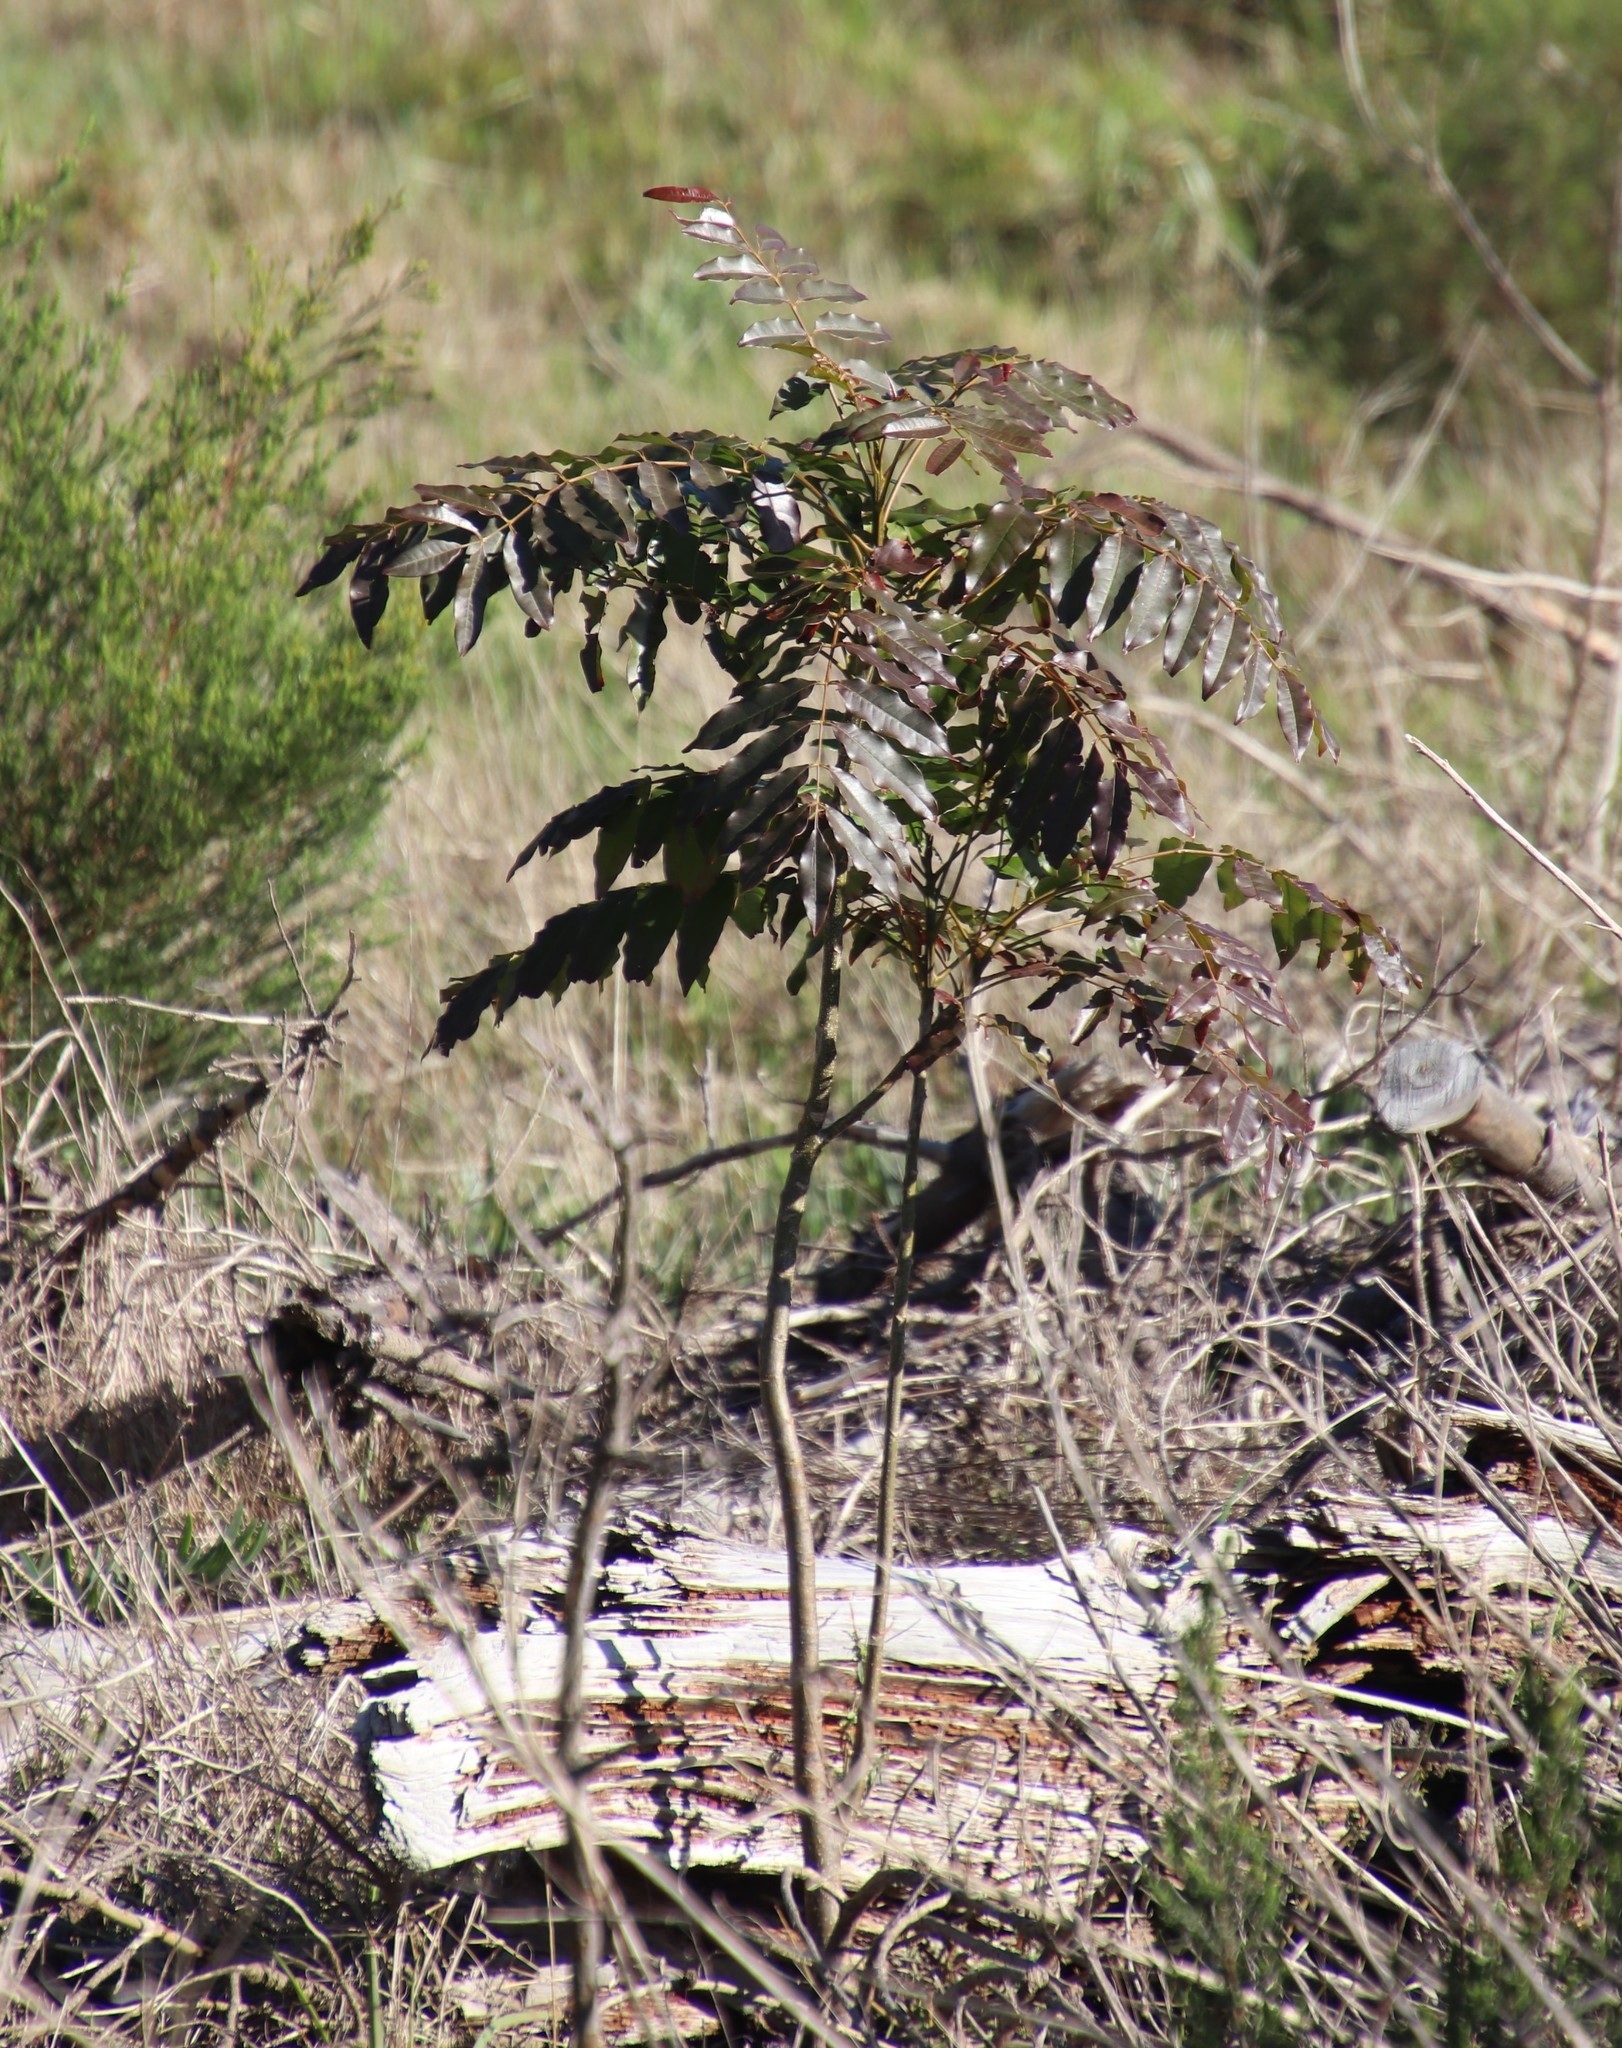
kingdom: Plantae
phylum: Tracheophyta
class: Magnoliopsida
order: Sapindales
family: Meliaceae
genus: Ekebergia
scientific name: Ekebergia capensis
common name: Cape-ash
